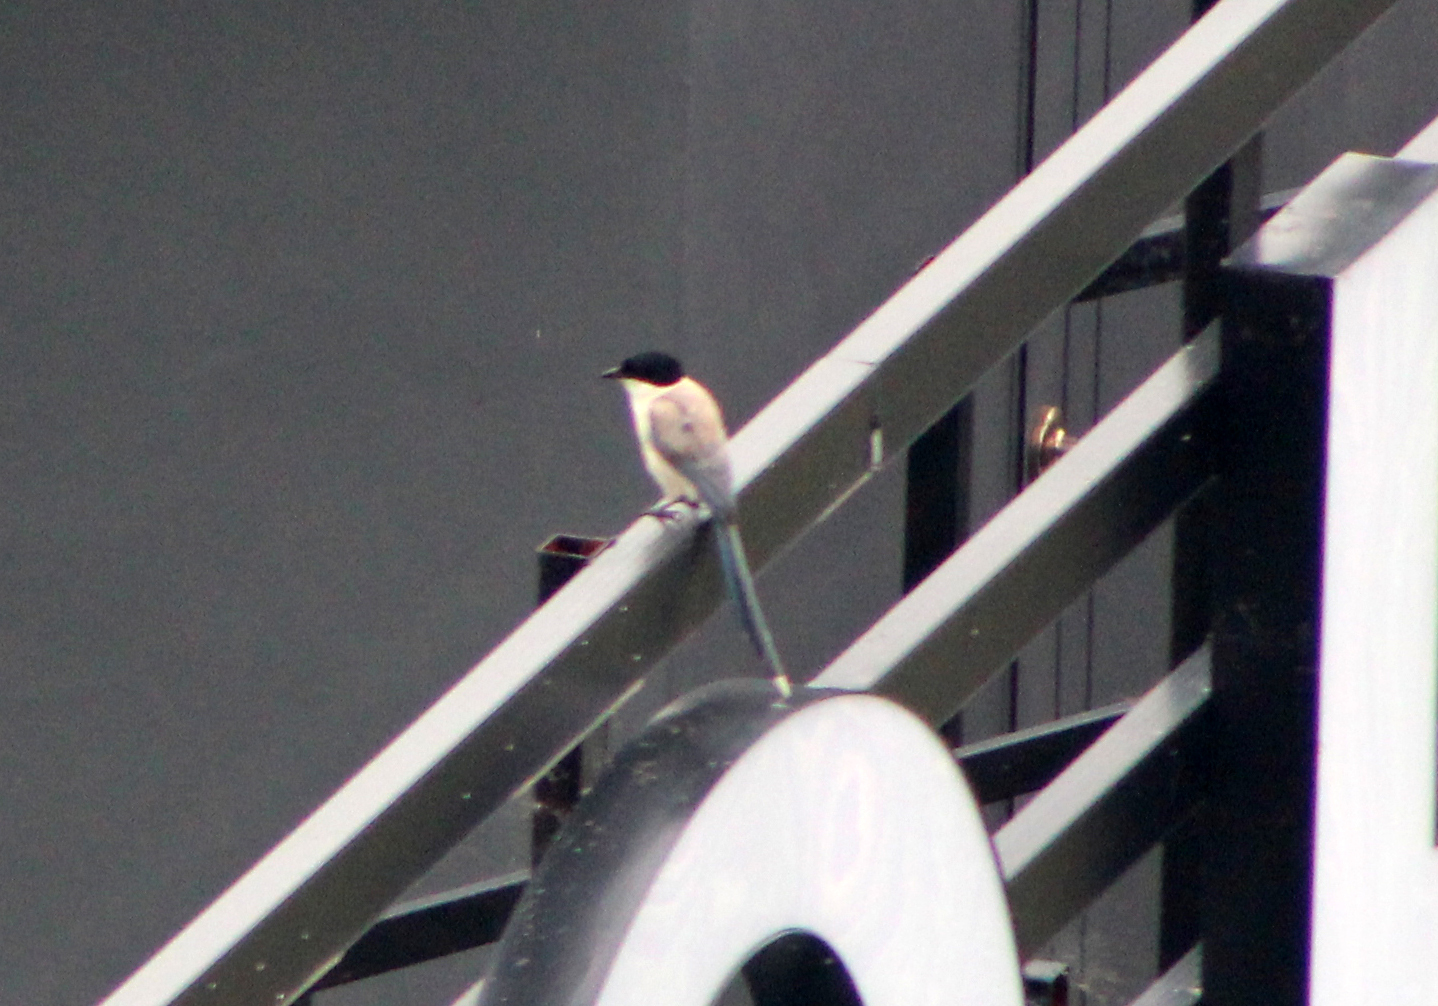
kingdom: Animalia
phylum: Chordata
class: Aves
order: Passeriformes
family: Corvidae
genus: Cyanopica
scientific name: Cyanopica cyanus
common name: Azure-winged magpie
